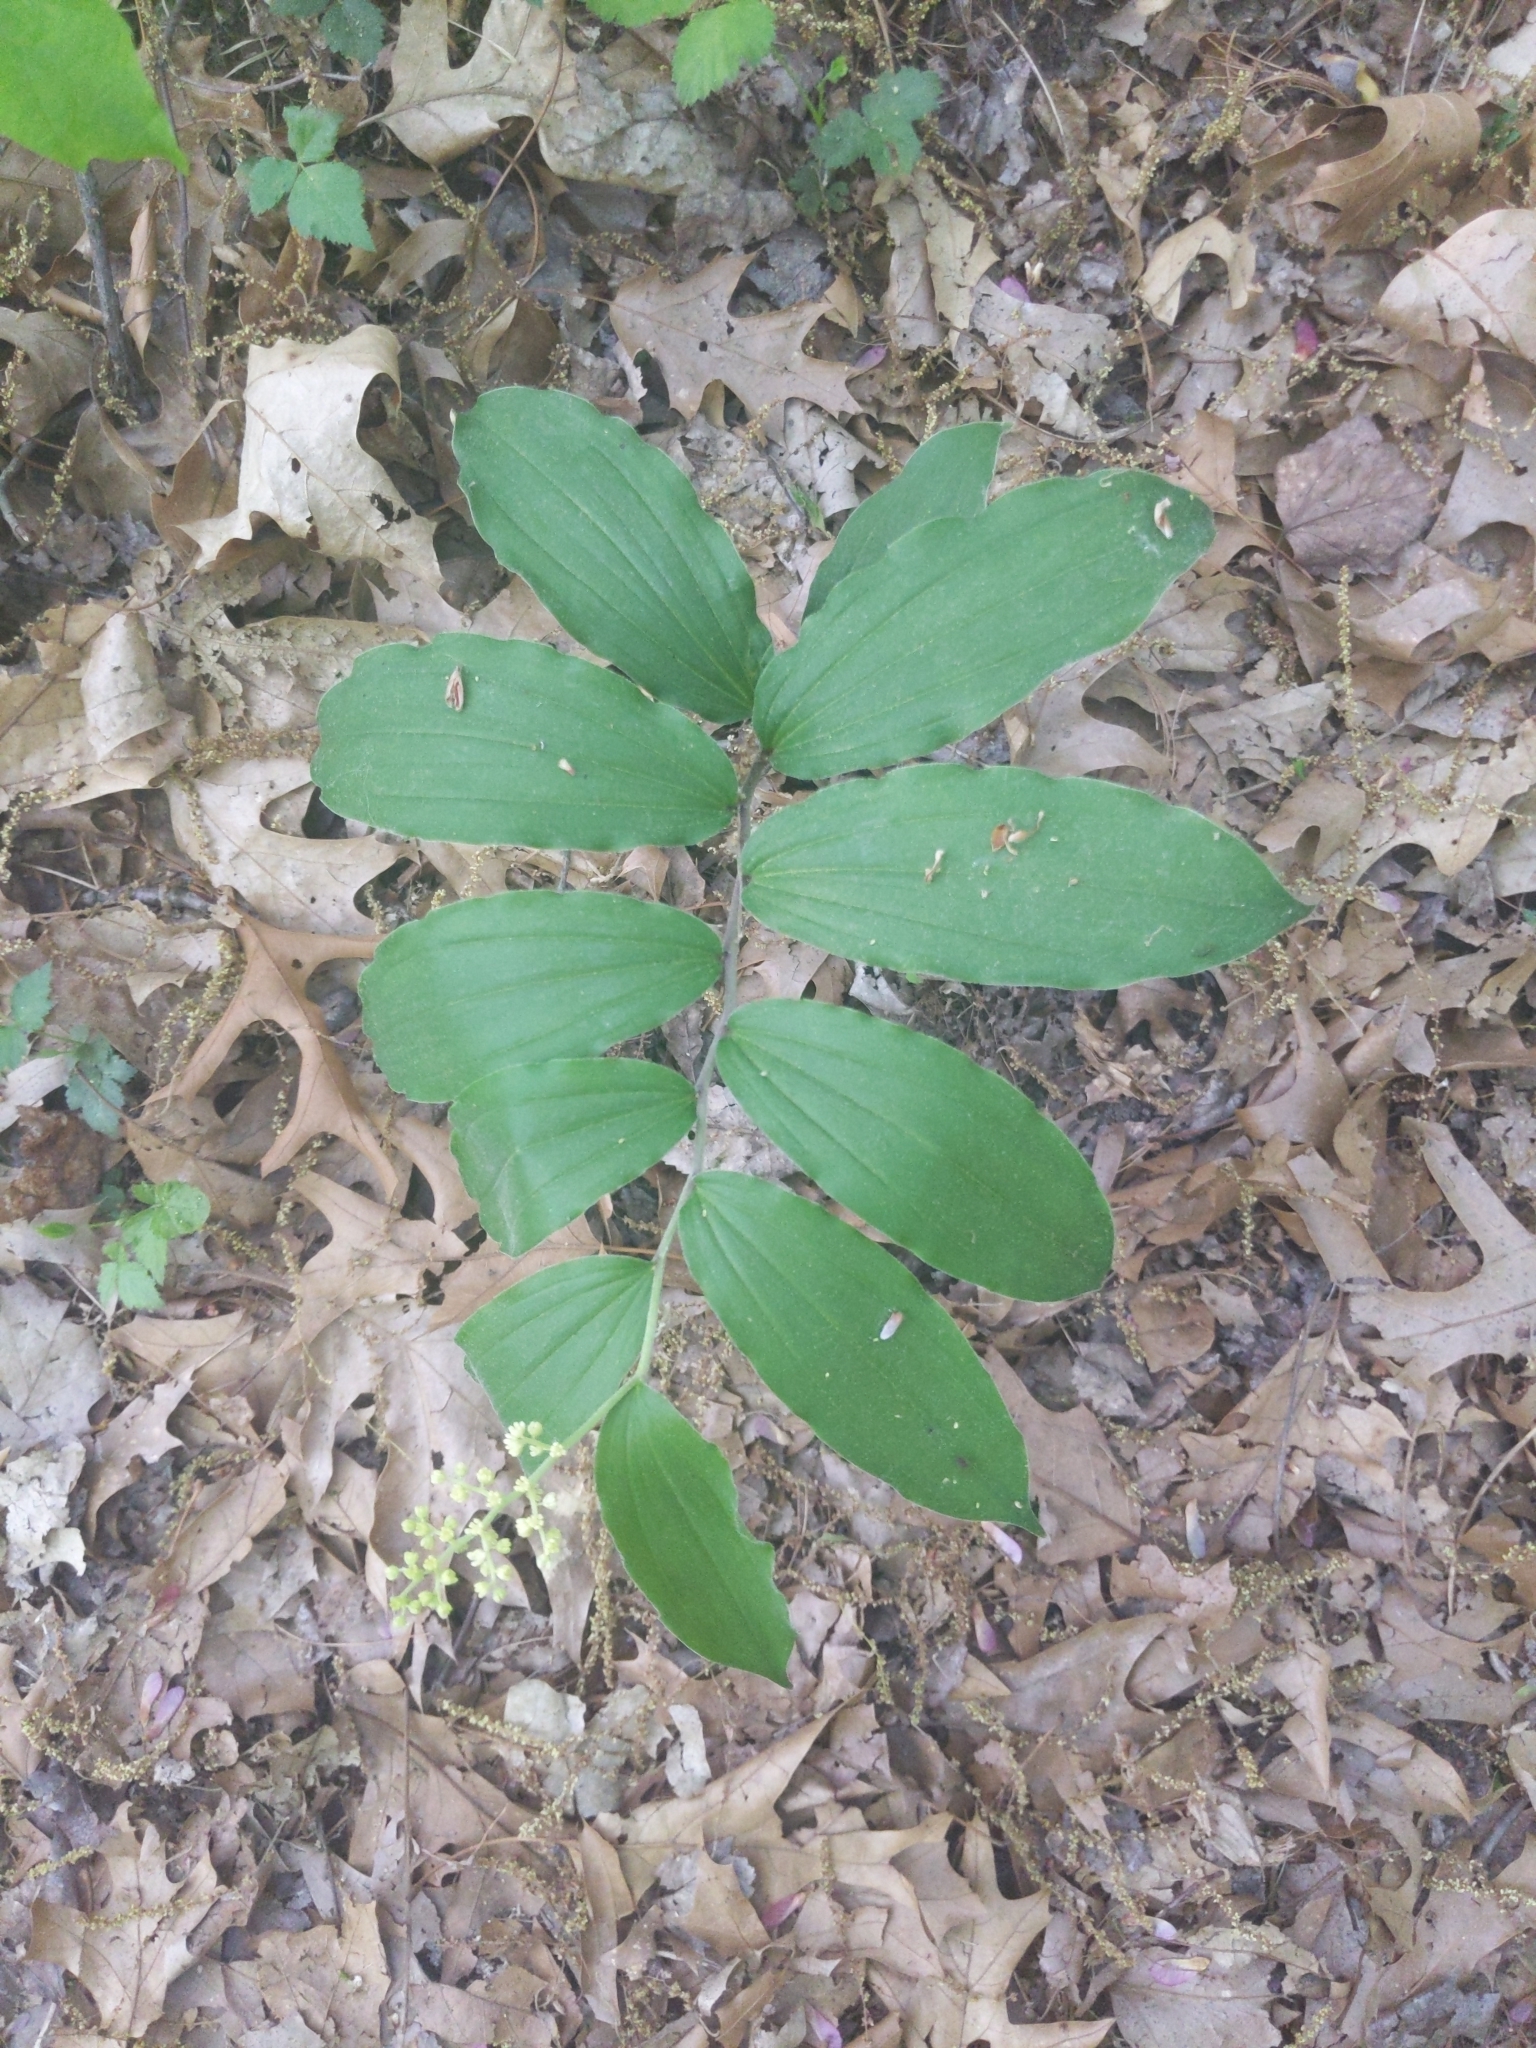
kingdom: Plantae
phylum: Tracheophyta
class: Liliopsida
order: Asparagales
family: Asparagaceae
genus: Maianthemum
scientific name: Maianthemum racemosum
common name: False spikenard
